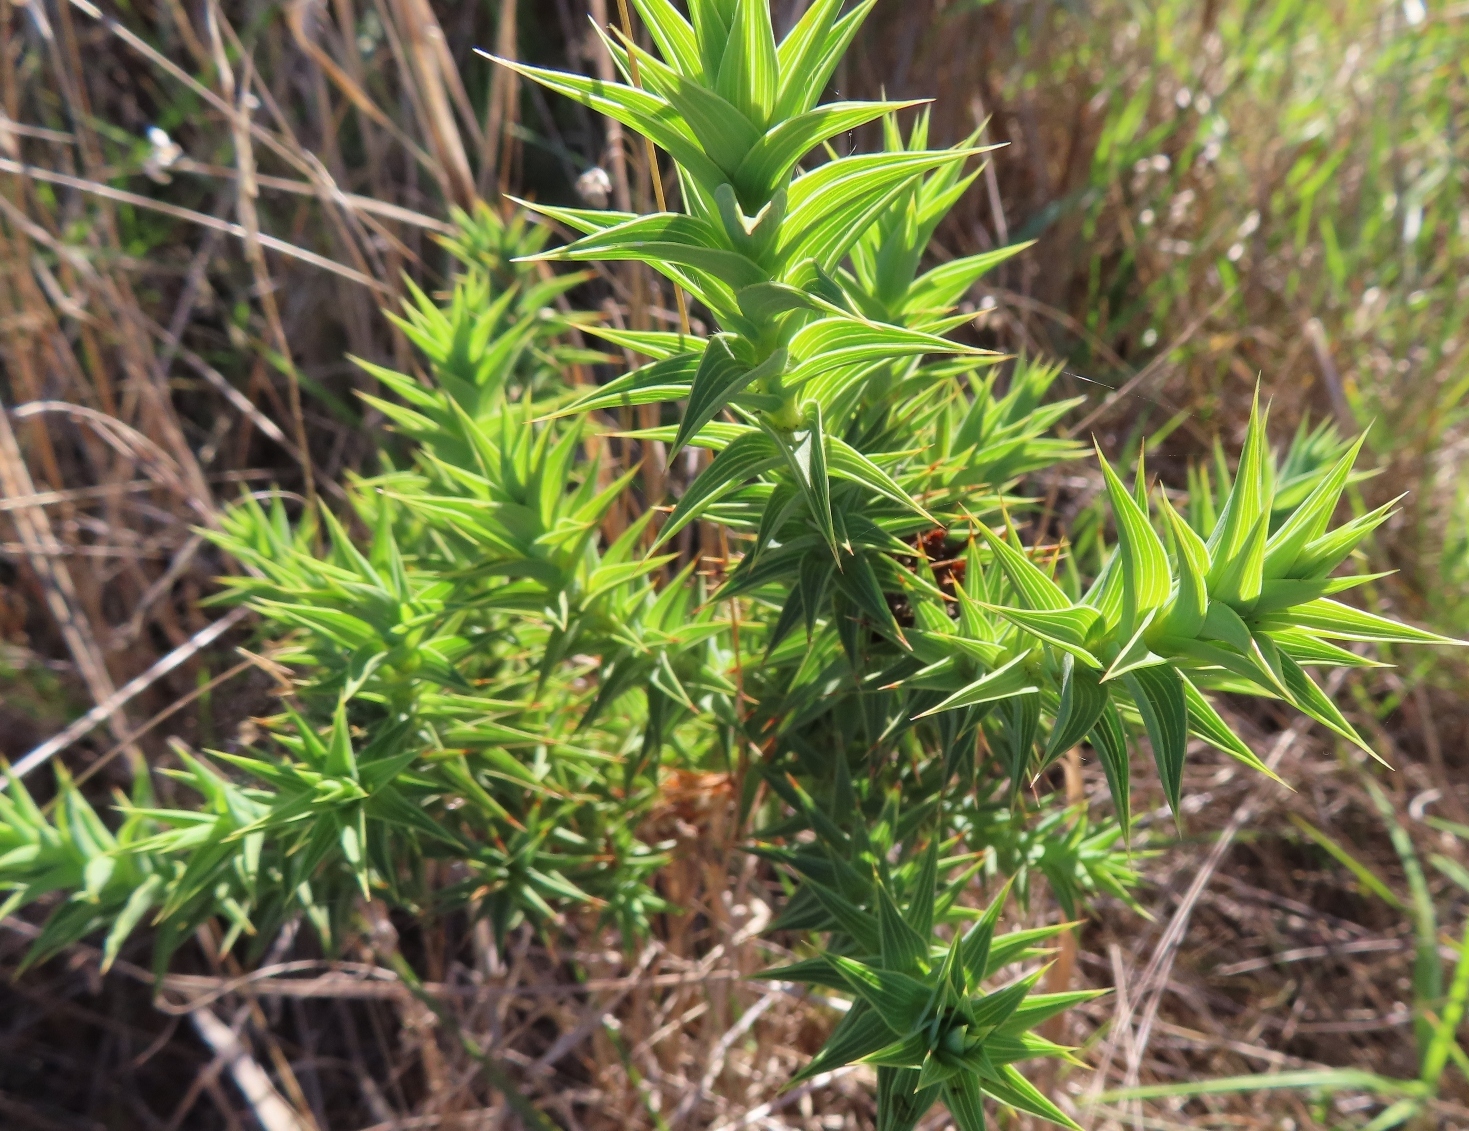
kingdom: Plantae
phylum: Tracheophyta
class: Magnoliopsida
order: Fabales
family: Fabaceae
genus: Aspalathus
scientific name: Aspalathus cordata
